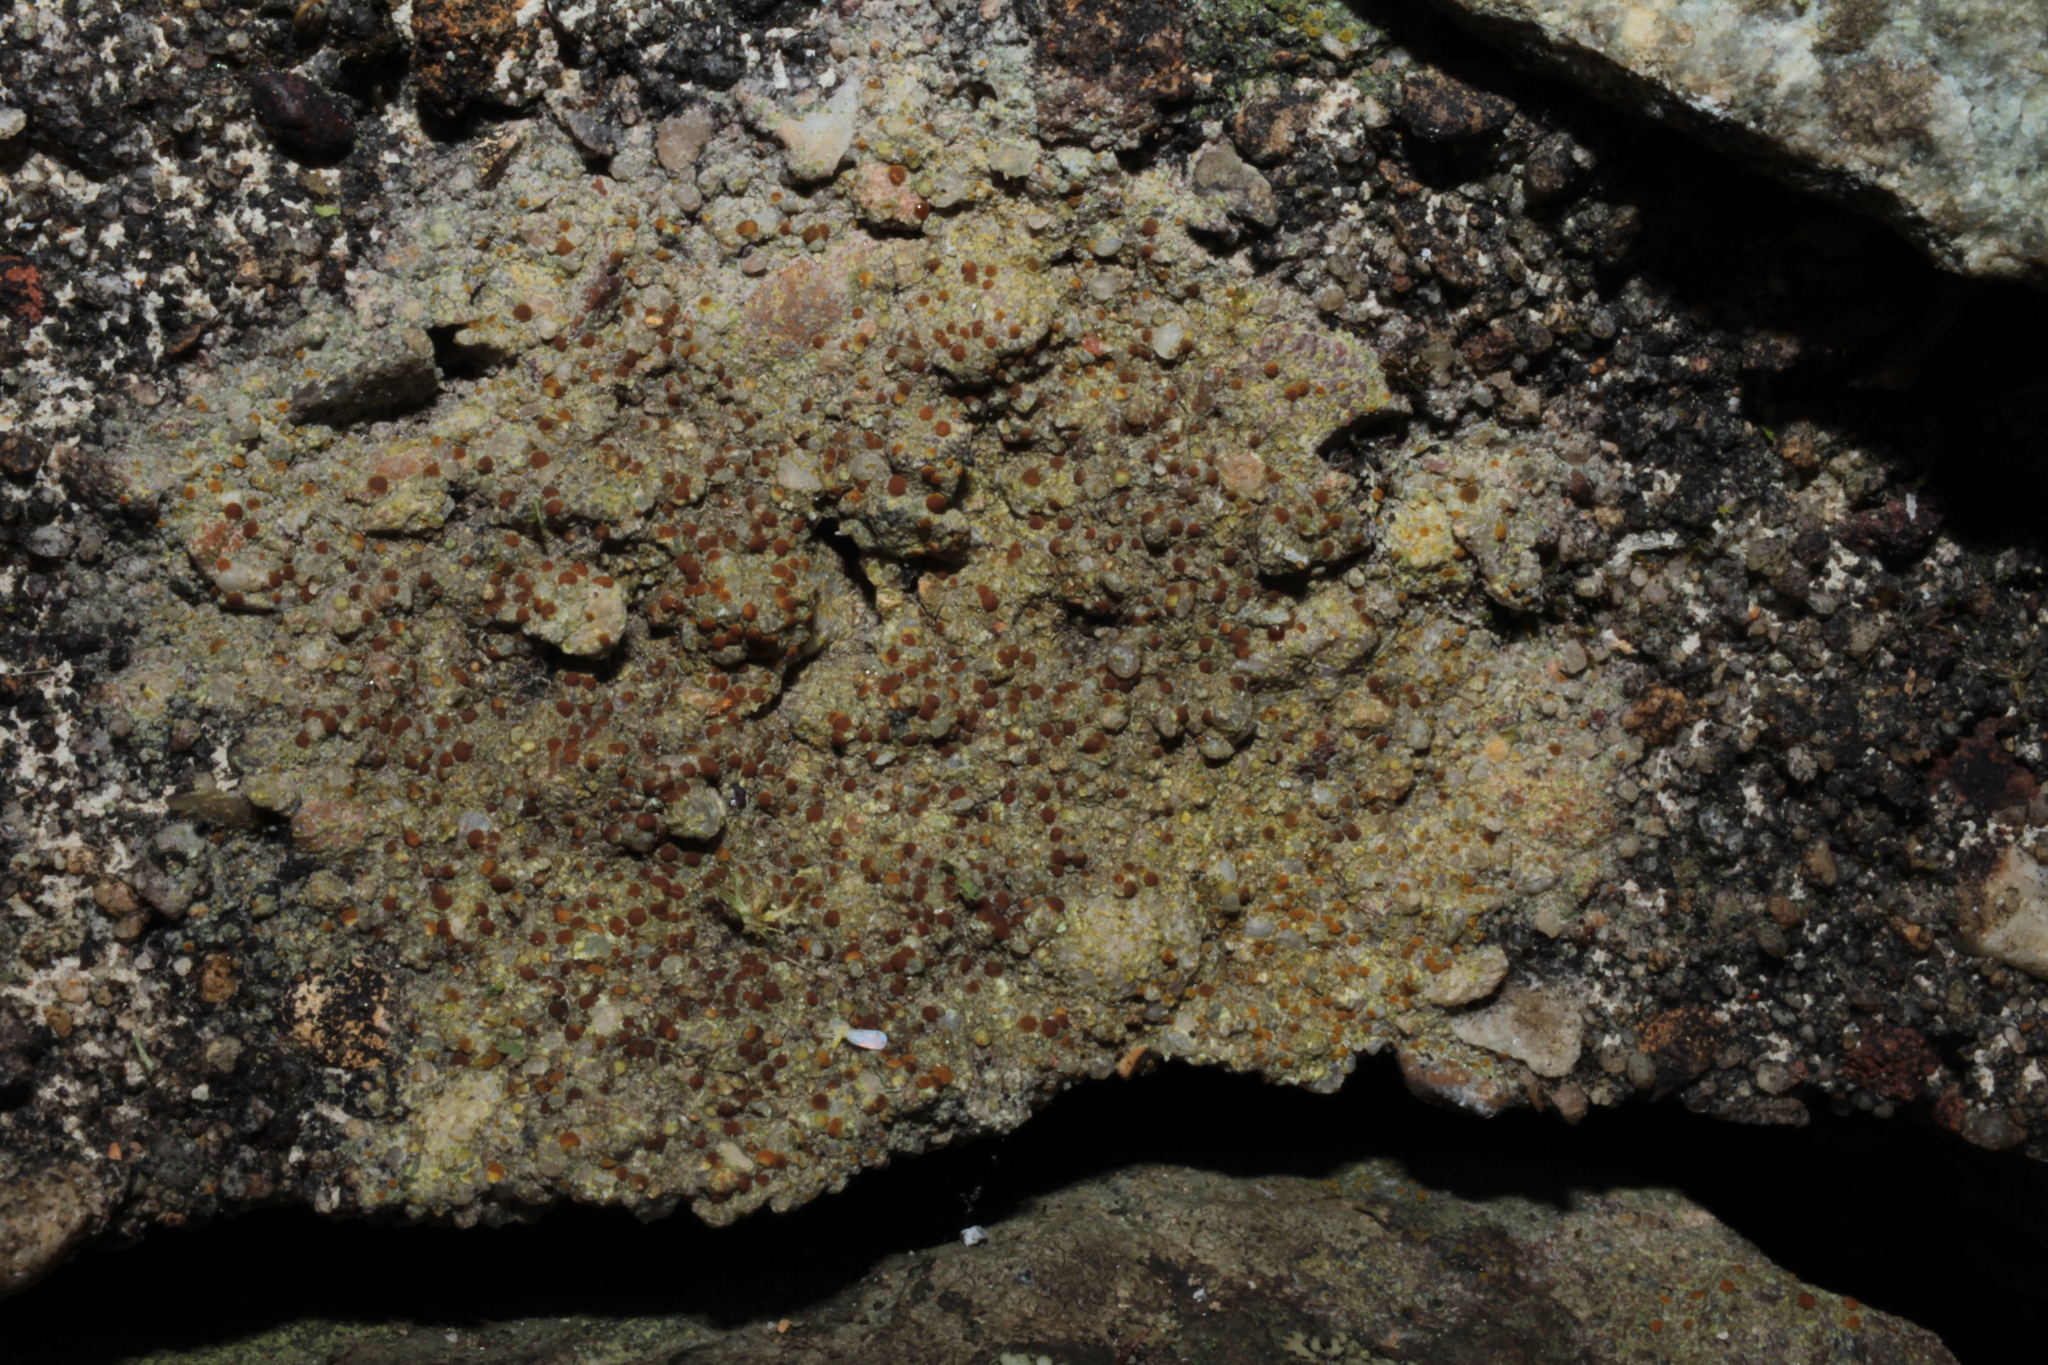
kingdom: Fungi
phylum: Ascomycota
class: Lecanoromycetes
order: Teloschistales
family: Teloschistaceae
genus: Gyalolechia
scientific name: Gyalolechia flavovirescens
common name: Sulphur firedot
